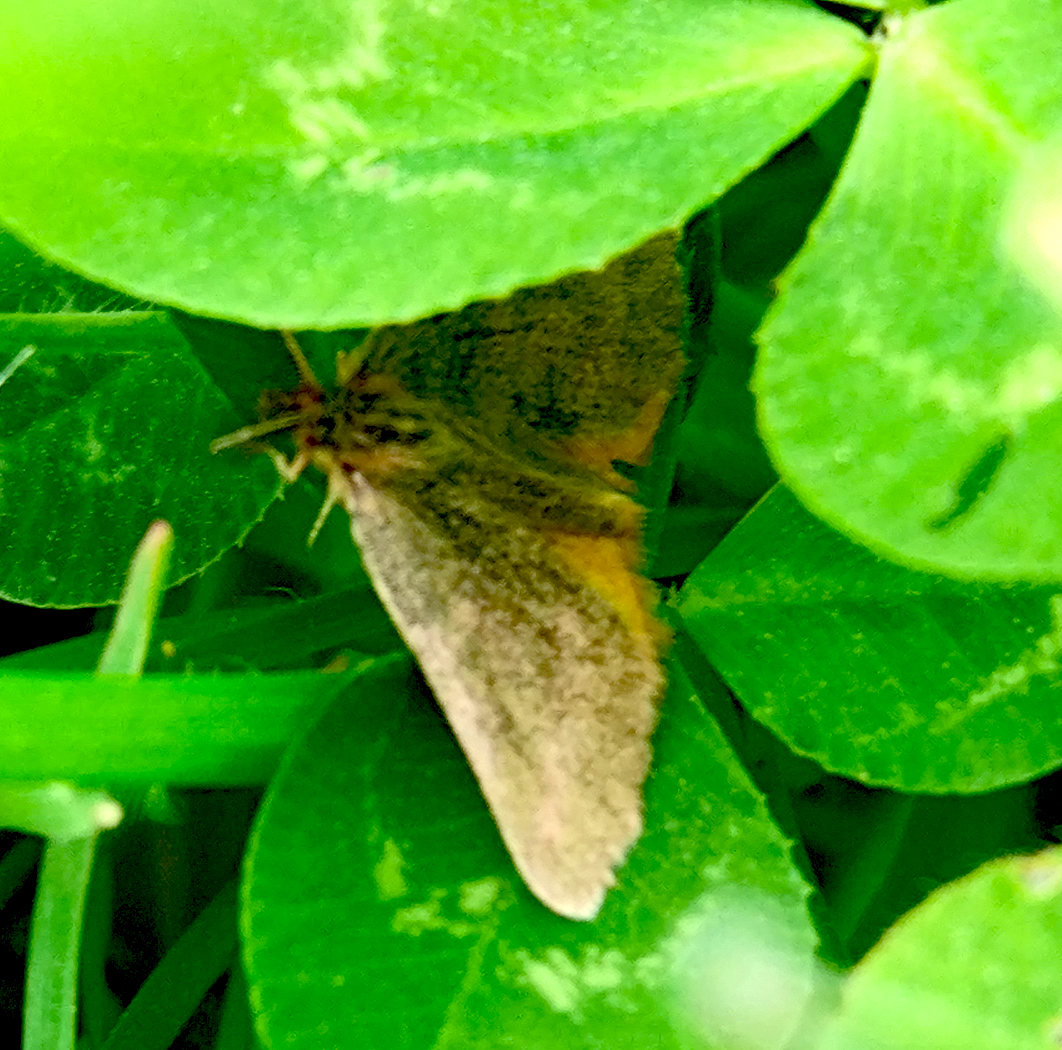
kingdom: Animalia
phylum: Arthropoda
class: Insecta
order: Lepidoptera
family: Geometridae
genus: Lythria
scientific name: Lythria purpuraria
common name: Purple-barred yellow
